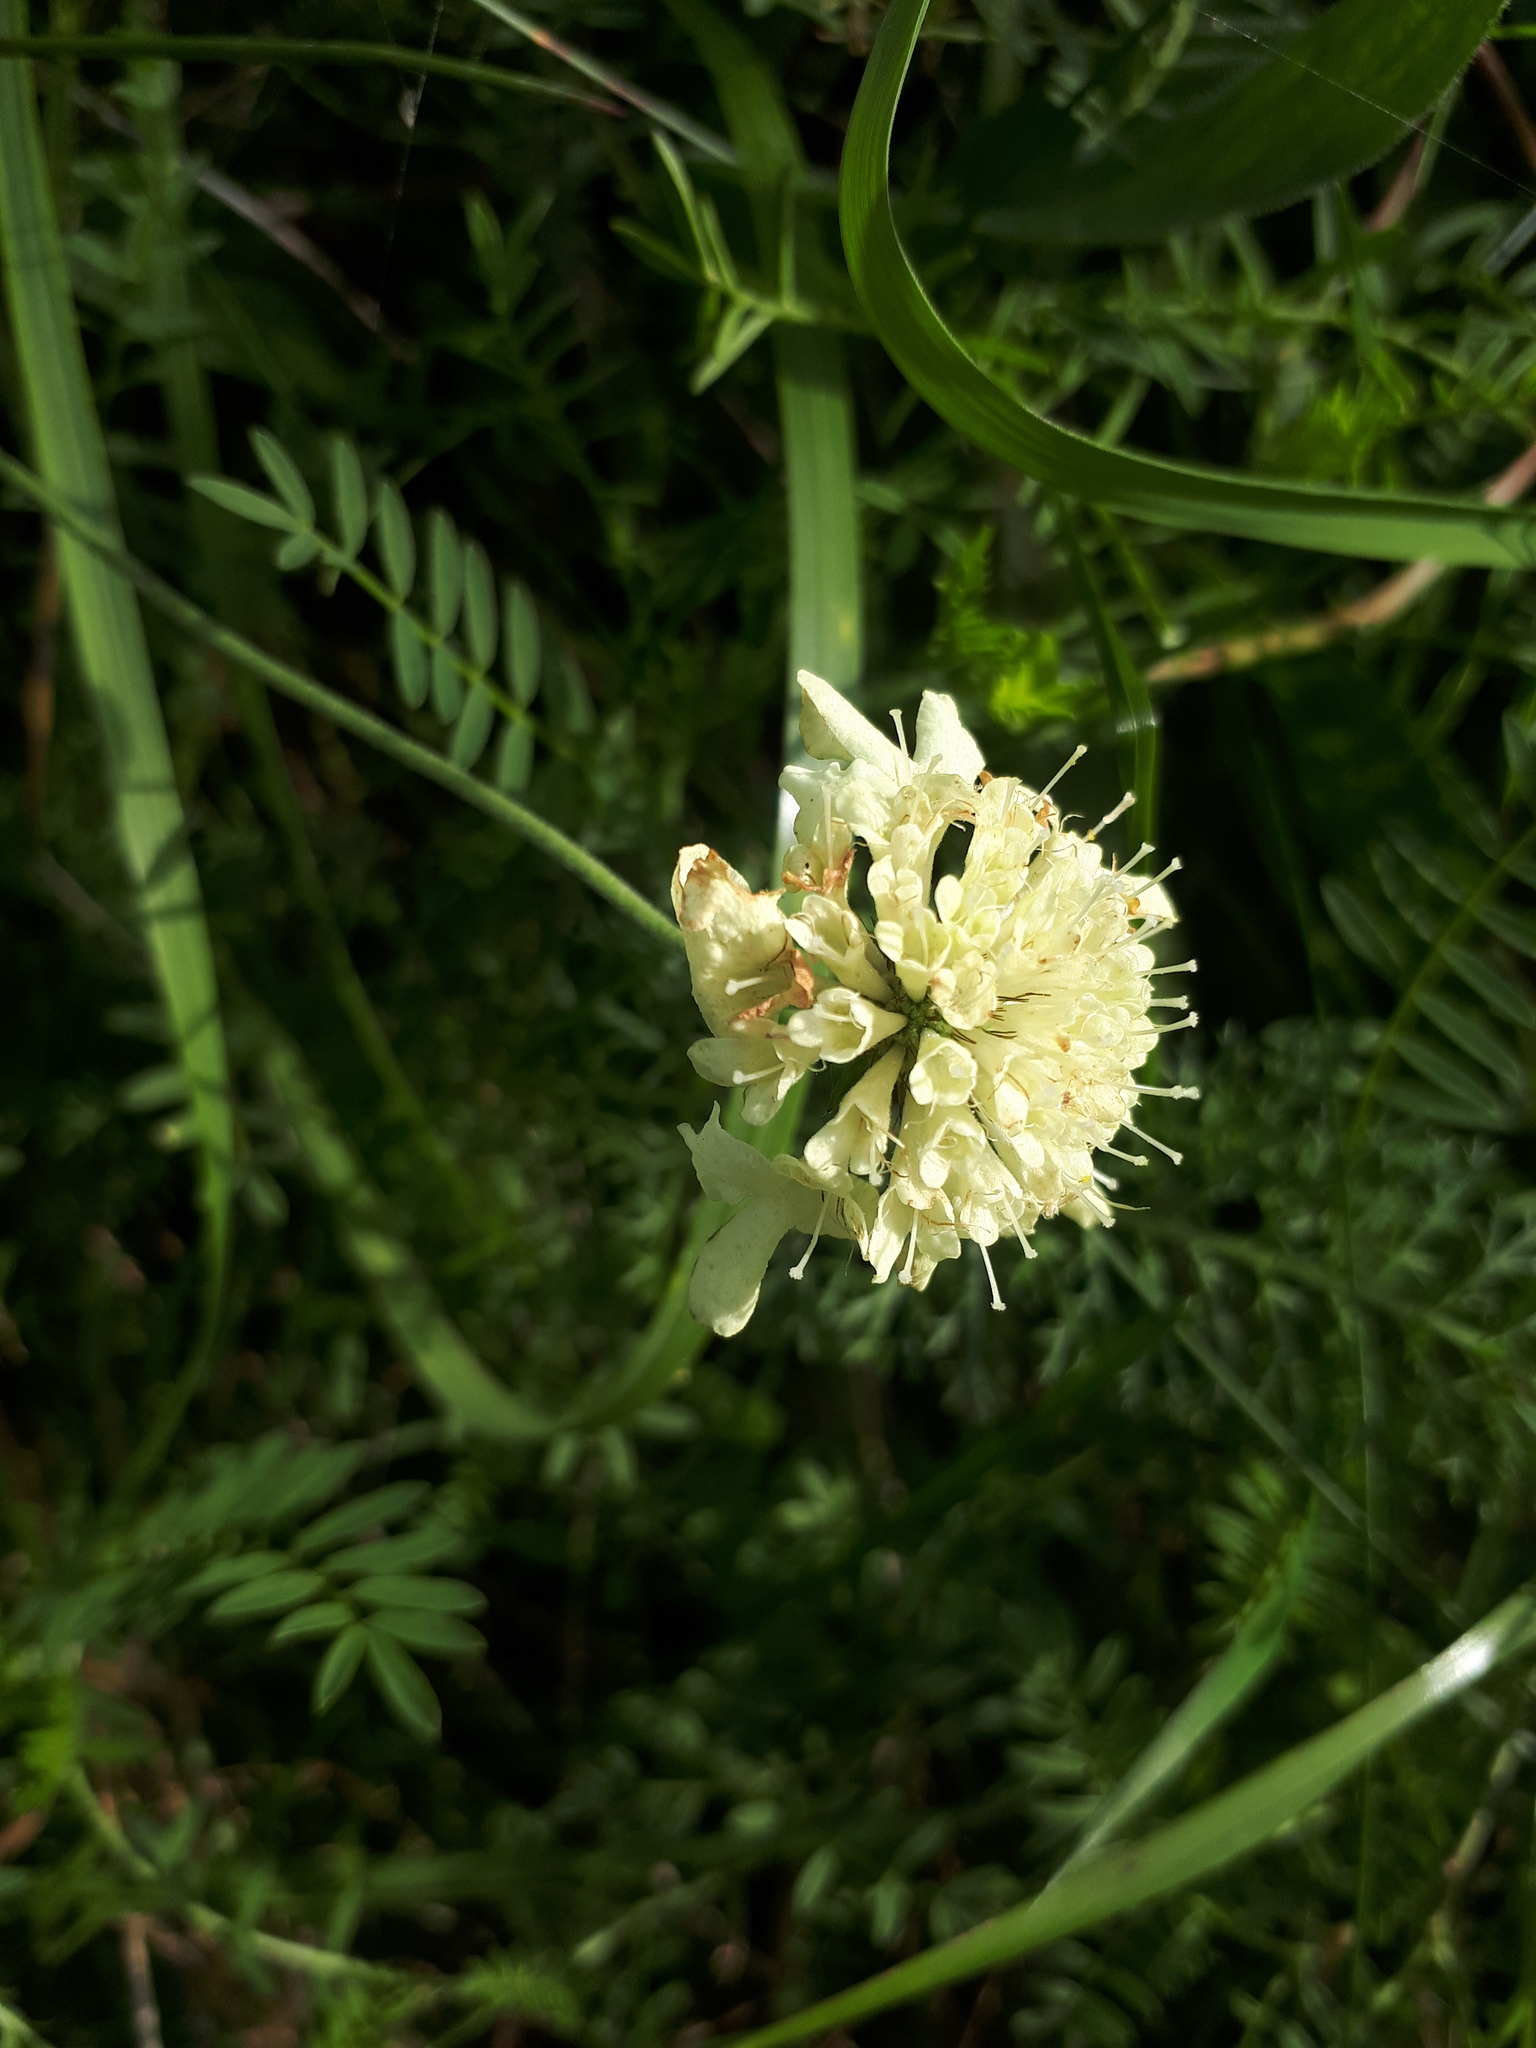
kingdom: Plantae
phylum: Tracheophyta
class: Magnoliopsida
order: Dipsacales
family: Caprifoliaceae
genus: Scabiosa
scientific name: Scabiosa ochroleuca
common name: Cream pincushions
